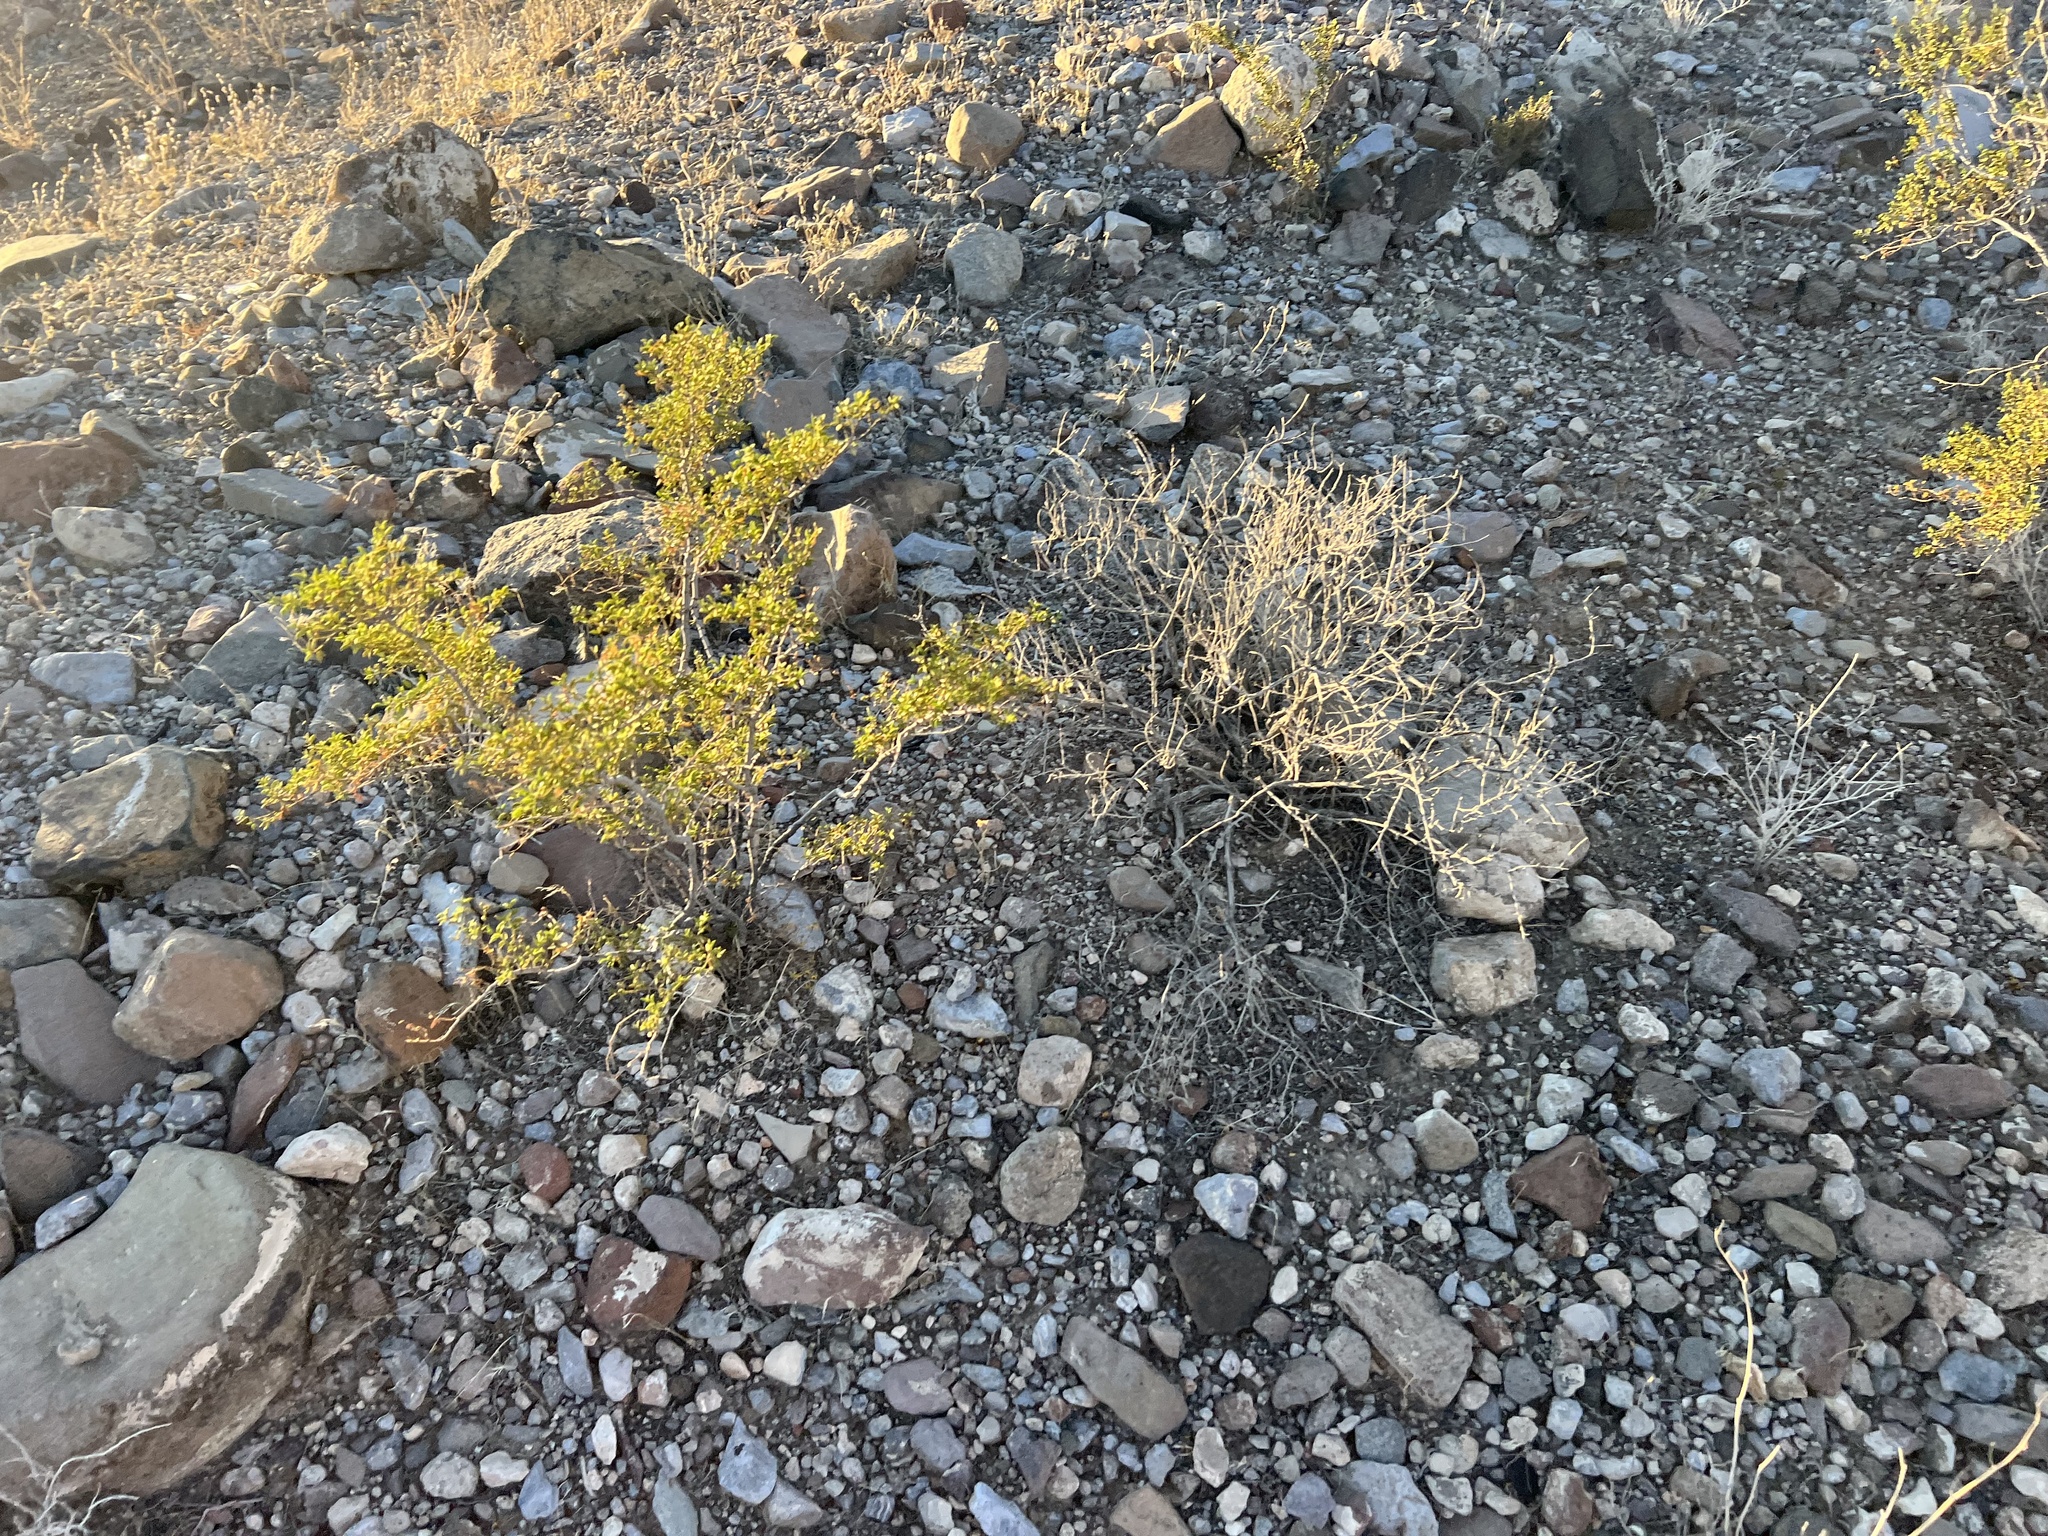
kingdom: Plantae
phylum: Tracheophyta
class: Magnoliopsida
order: Zygophyllales
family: Zygophyllaceae
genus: Larrea
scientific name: Larrea tridentata
